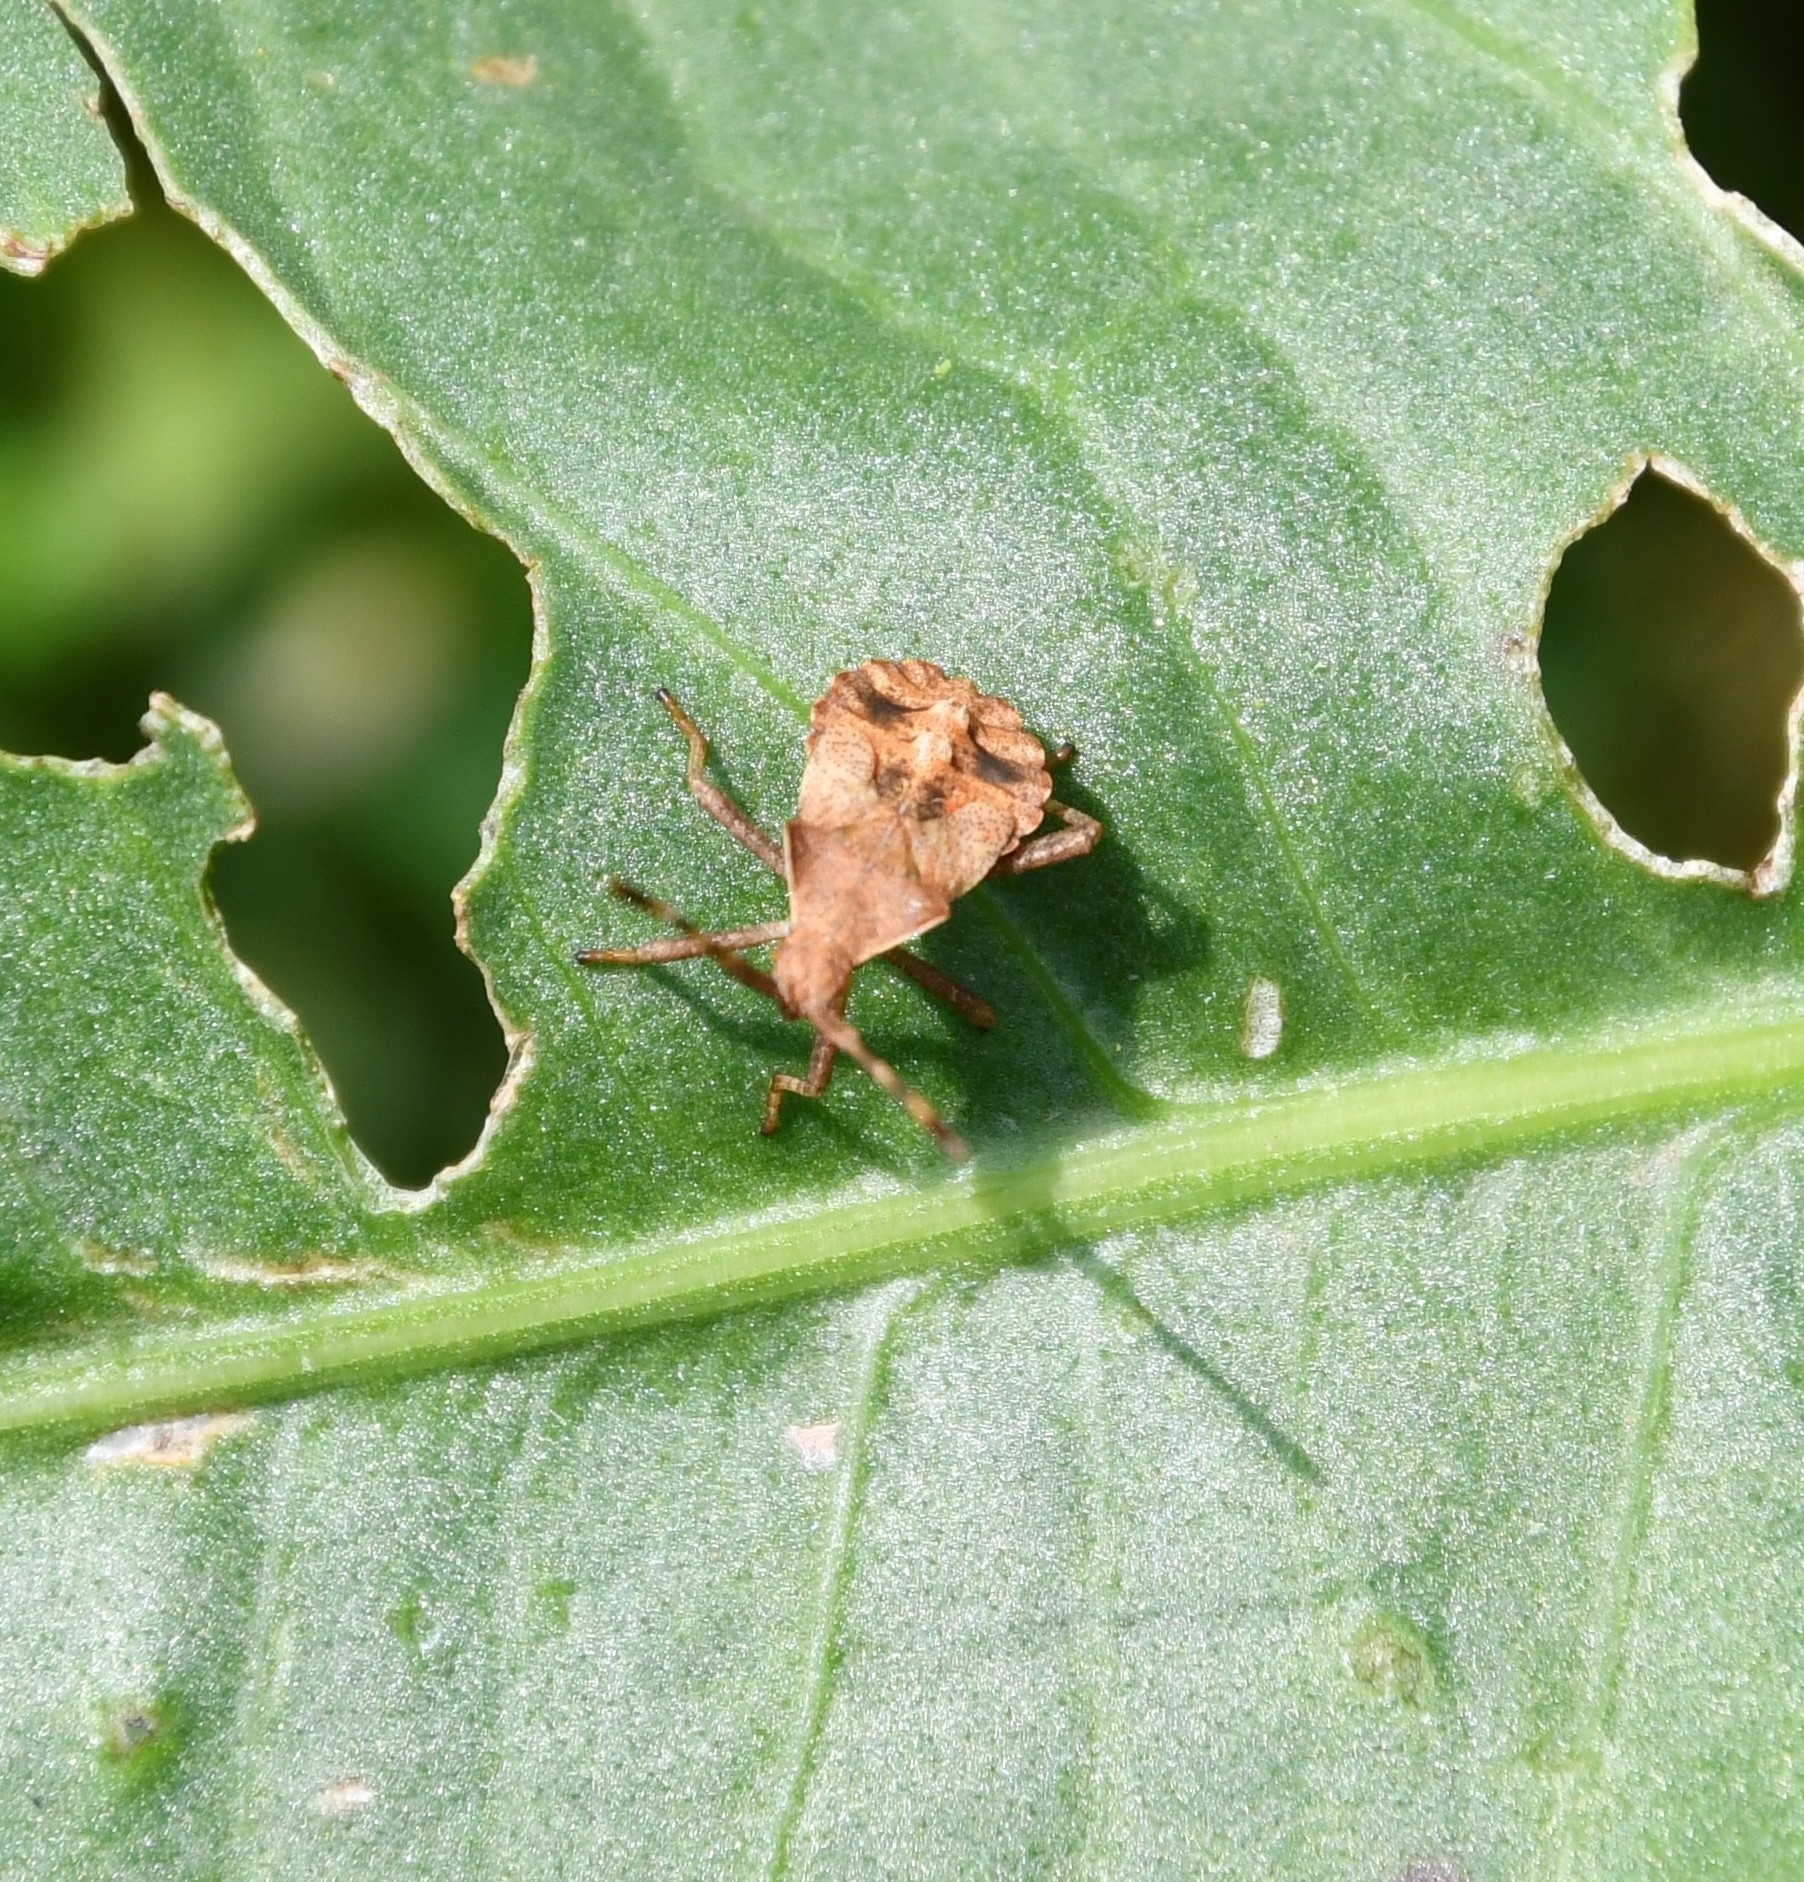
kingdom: Animalia
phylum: Arthropoda
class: Insecta
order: Hemiptera
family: Coreidae
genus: Coreus
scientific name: Coreus marginatus
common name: Dock bug
